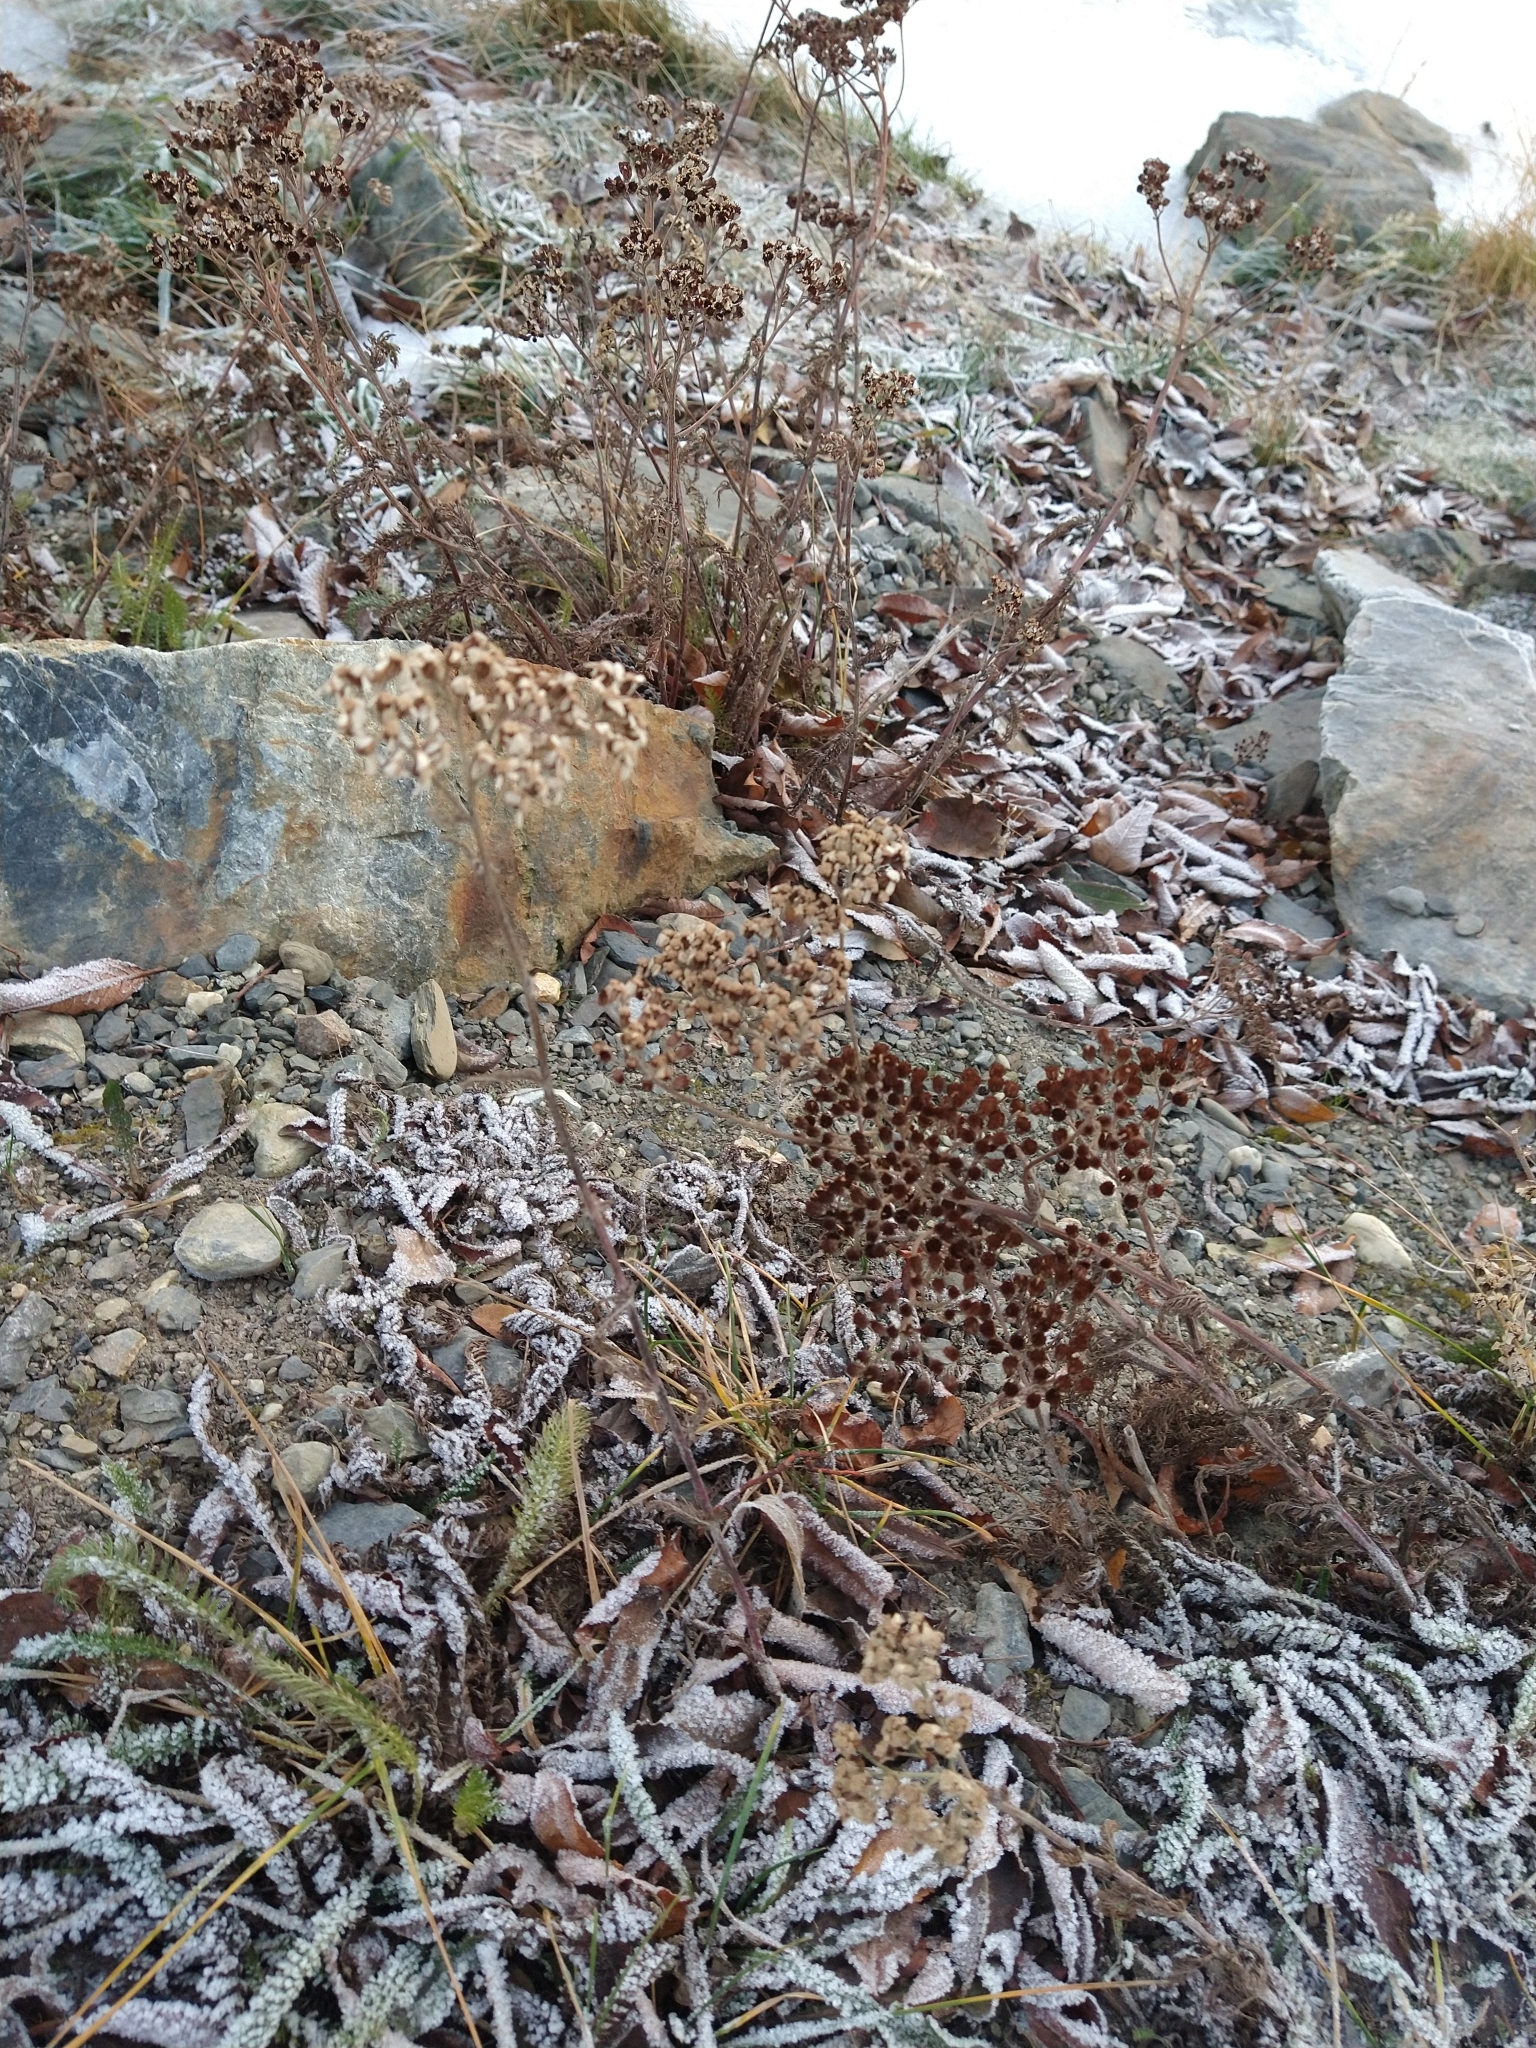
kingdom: Plantae
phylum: Tracheophyta
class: Magnoliopsida
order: Asterales
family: Asteraceae
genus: Achillea
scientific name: Achillea millefolium
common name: Yarrow
